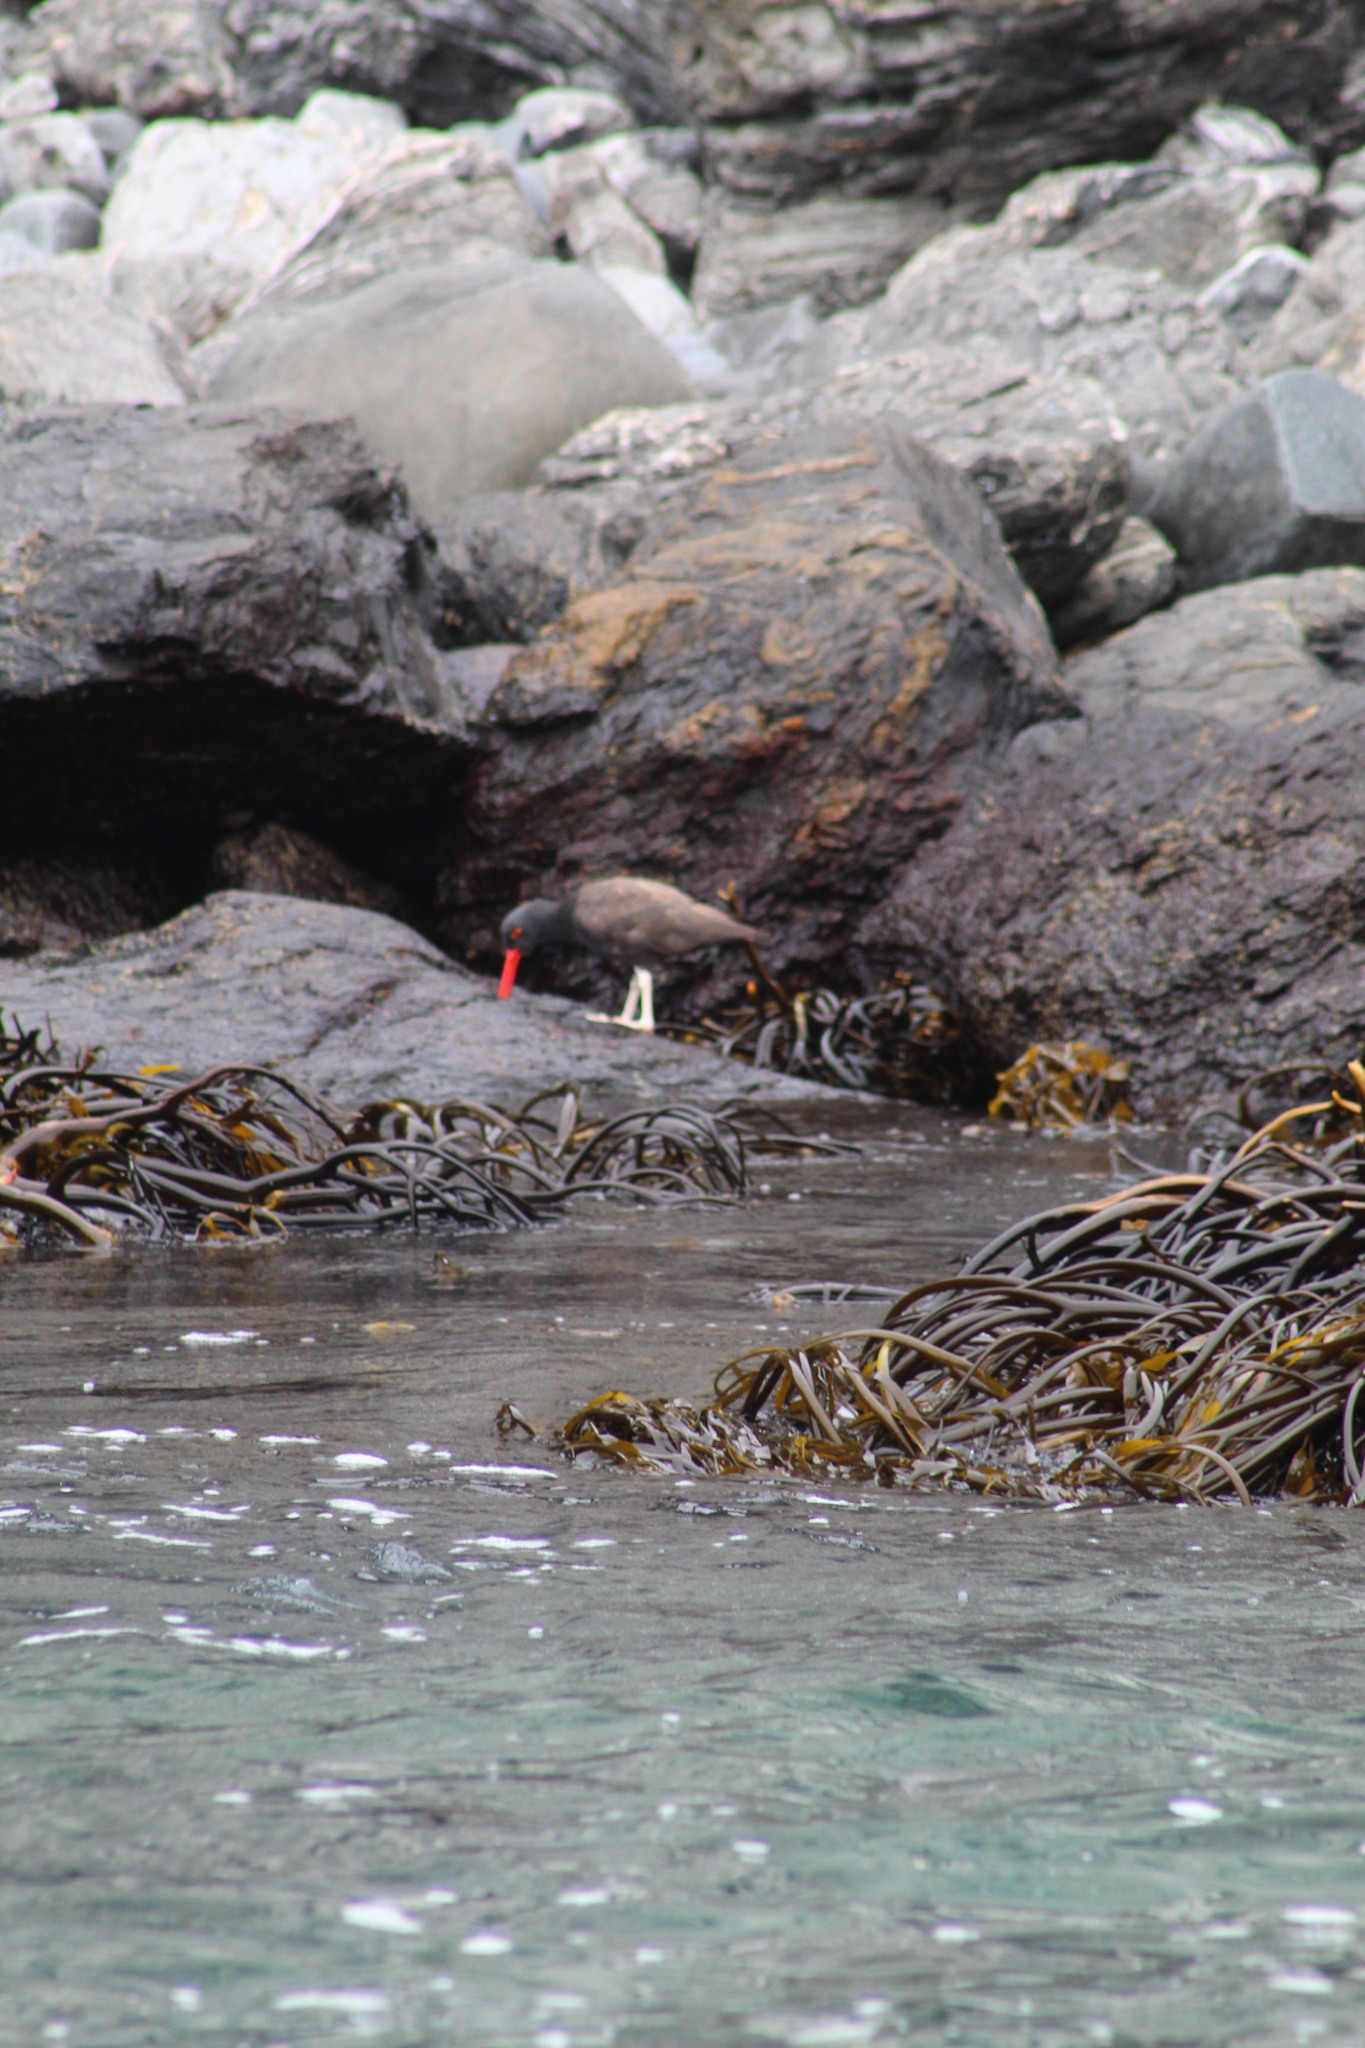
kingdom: Animalia
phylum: Chordata
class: Aves
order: Charadriiformes
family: Haematopodidae
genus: Haematopus
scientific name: Haematopus ater
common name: Blackish oystercatcher
